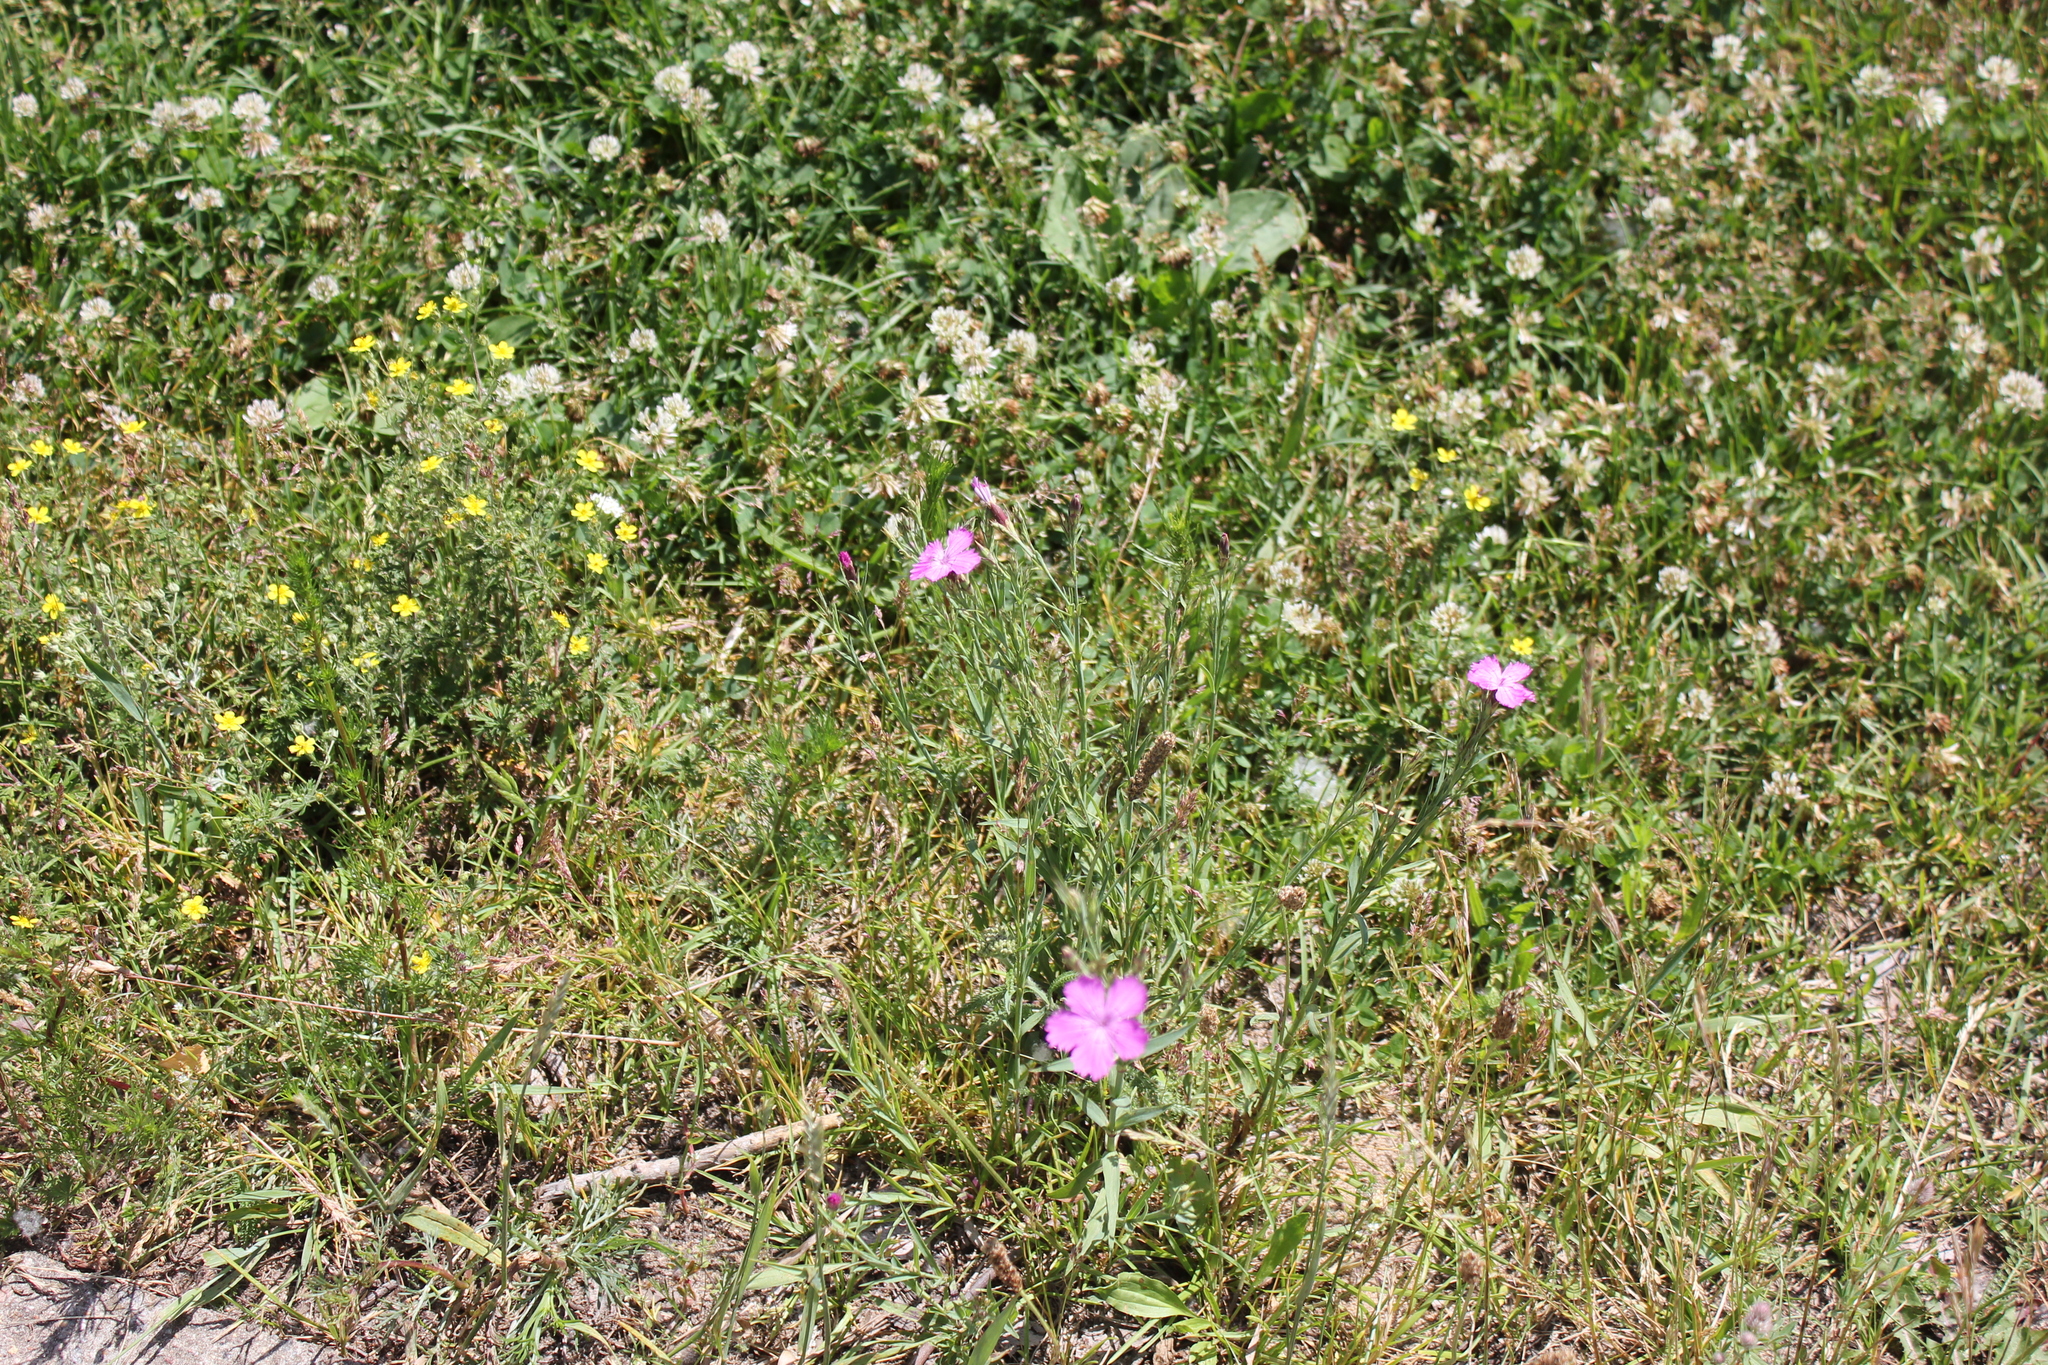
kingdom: Plantae
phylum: Tracheophyta
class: Magnoliopsida
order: Caryophyllales
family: Caryophyllaceae
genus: Dianthus
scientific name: Dianthus chinensis
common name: Rainbow pink
